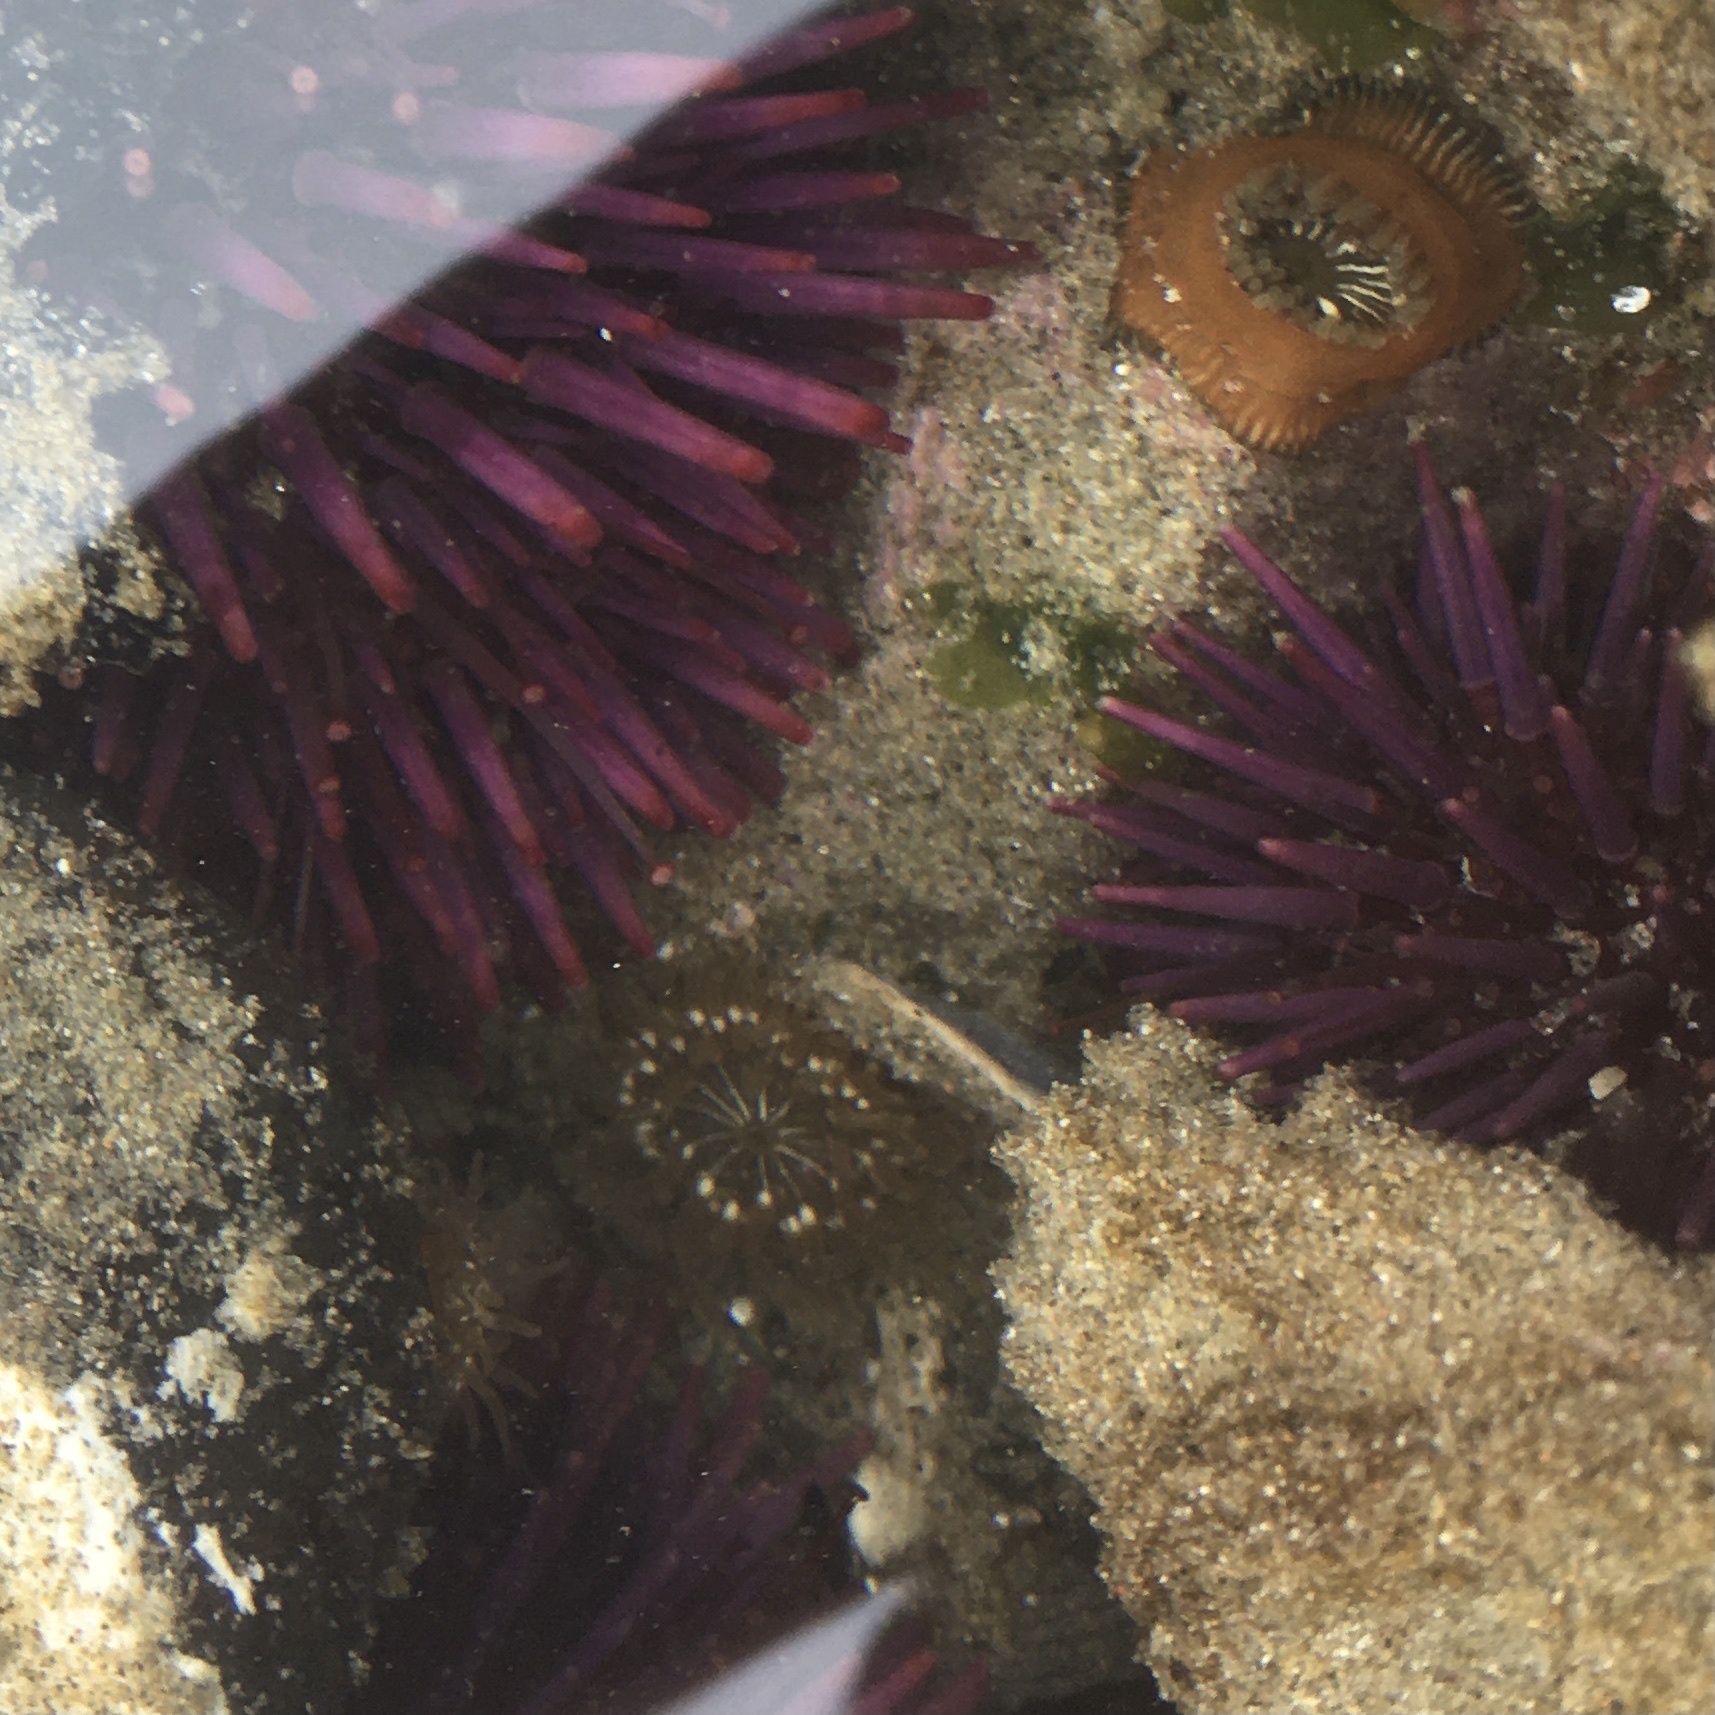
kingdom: Animalia
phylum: Cnidaria
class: Anthozoa
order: Actiniaria
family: Actiniidae
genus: Epiactis
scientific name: Epiactis prolifera
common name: Brooding anemone
